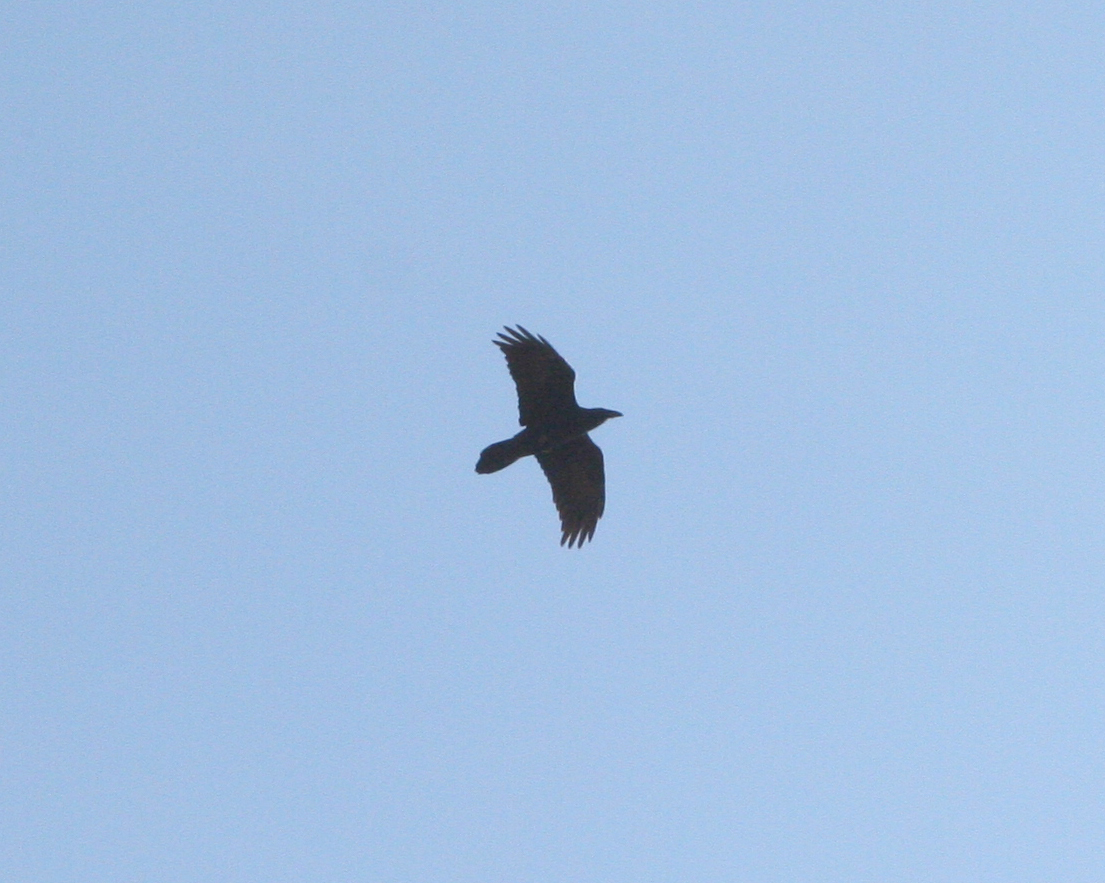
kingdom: Animalia
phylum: Chordata
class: Aves
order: Passeriformes
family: Corvidae
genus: Corvus
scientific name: Corvus corax
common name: Common raven
